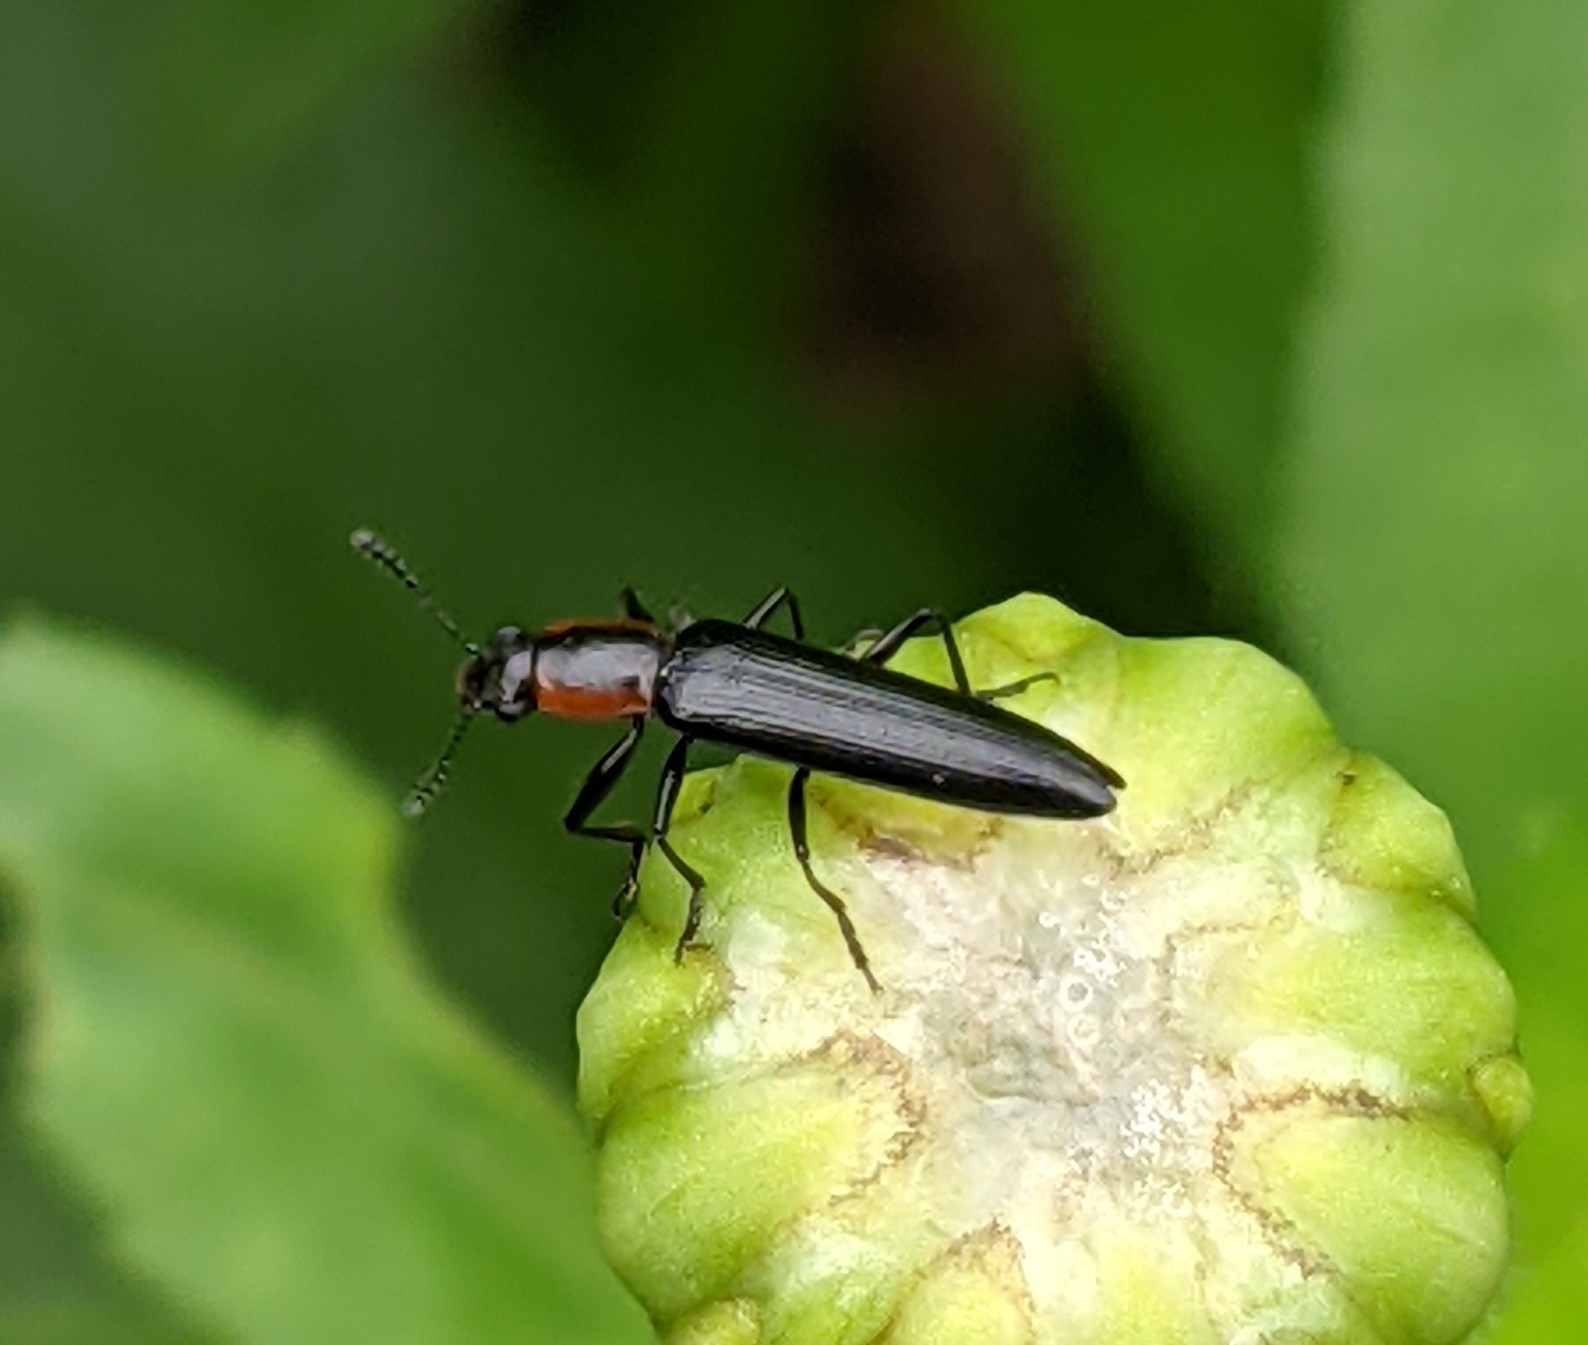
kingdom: Animalia
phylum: Arthropoda
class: Insecta
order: Coleoptera
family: Erotylidae
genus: Acropteroxys
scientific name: Acropteroxys gracilis
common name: Slender lizard beetle
